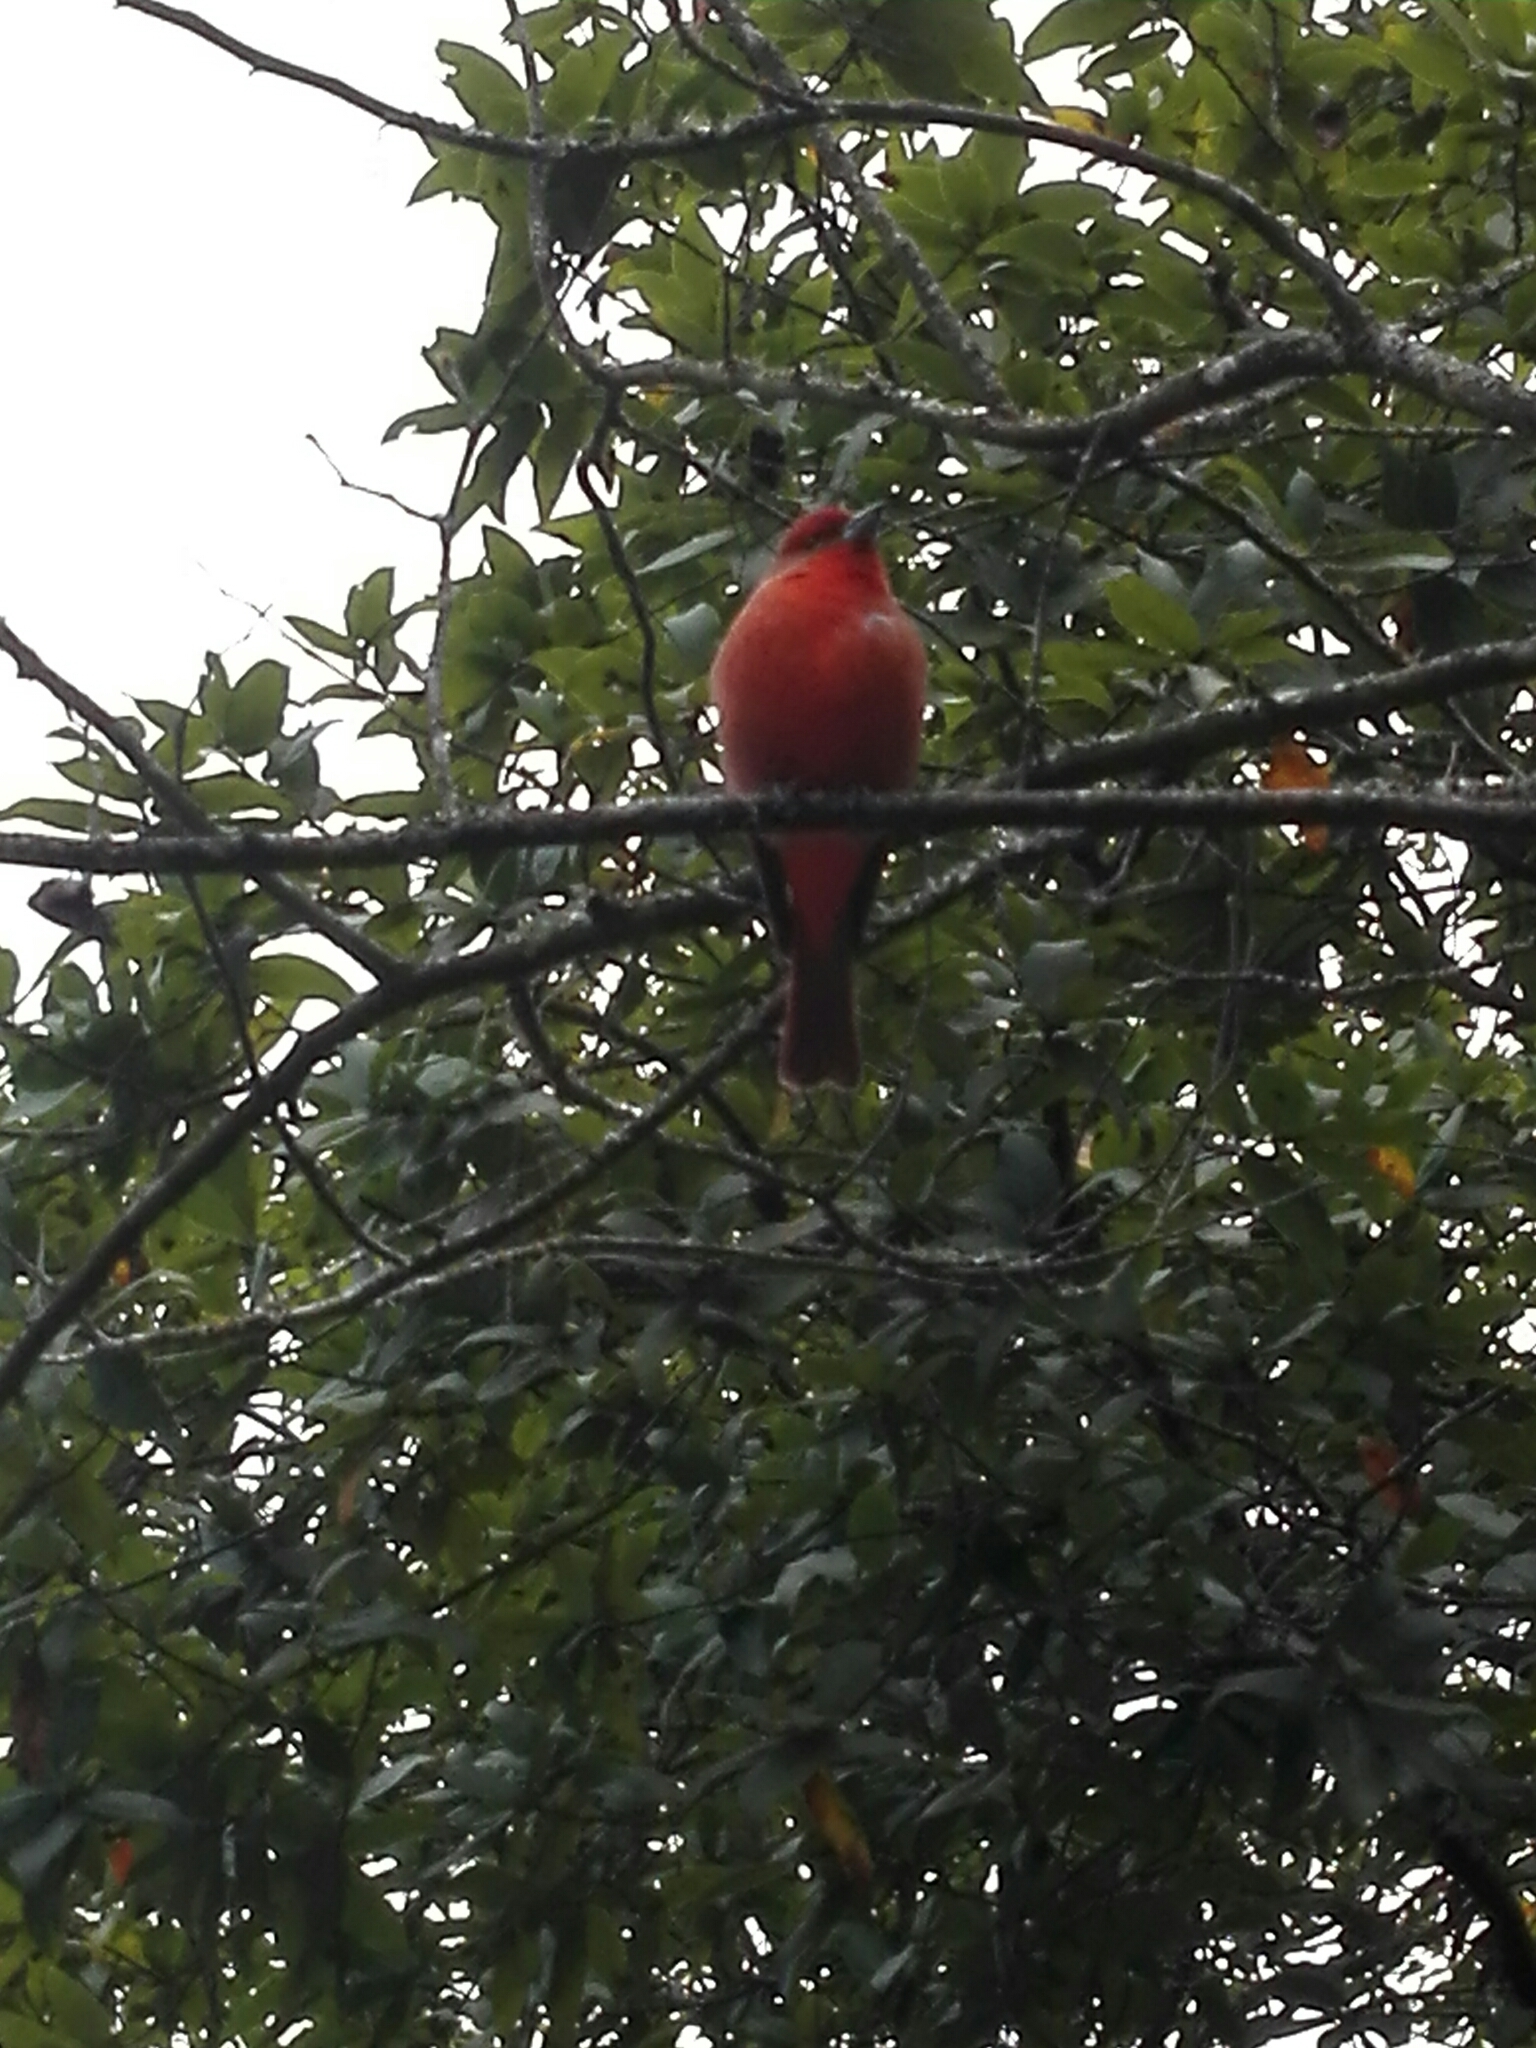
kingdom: Animalia
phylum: Chordata
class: Aves
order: Passeriformes
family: Cardinalidae
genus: Piranga
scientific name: Piranga rubra
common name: Summer tanager
